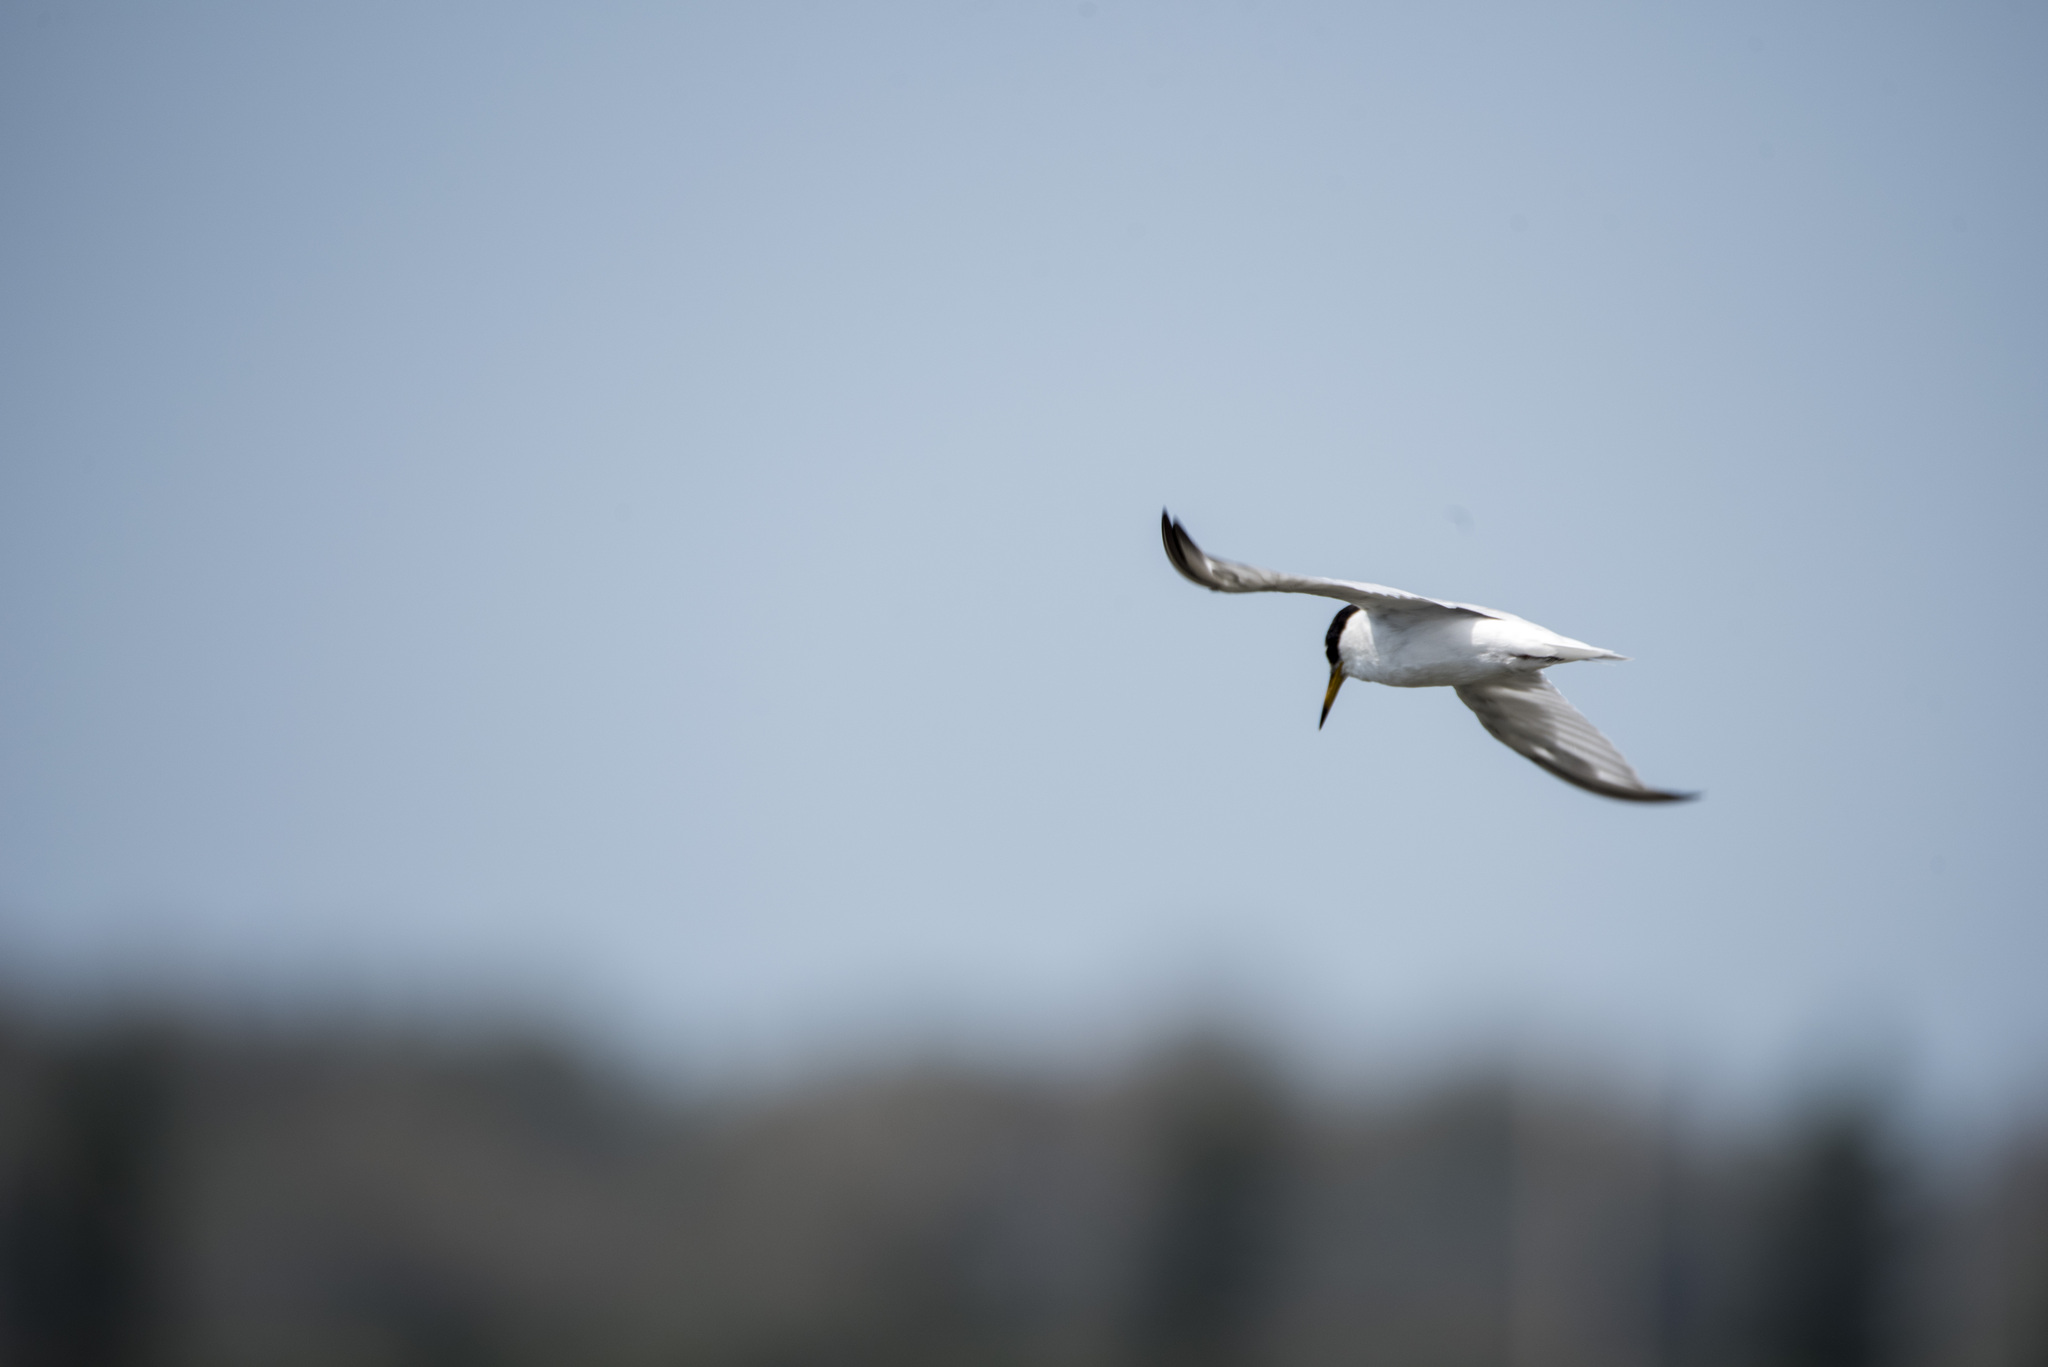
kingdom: Animalia
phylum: Chordata
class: Aves
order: Charadriiformes
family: Laridae
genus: Sternula
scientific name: Sternula albifrons
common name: Little tern
